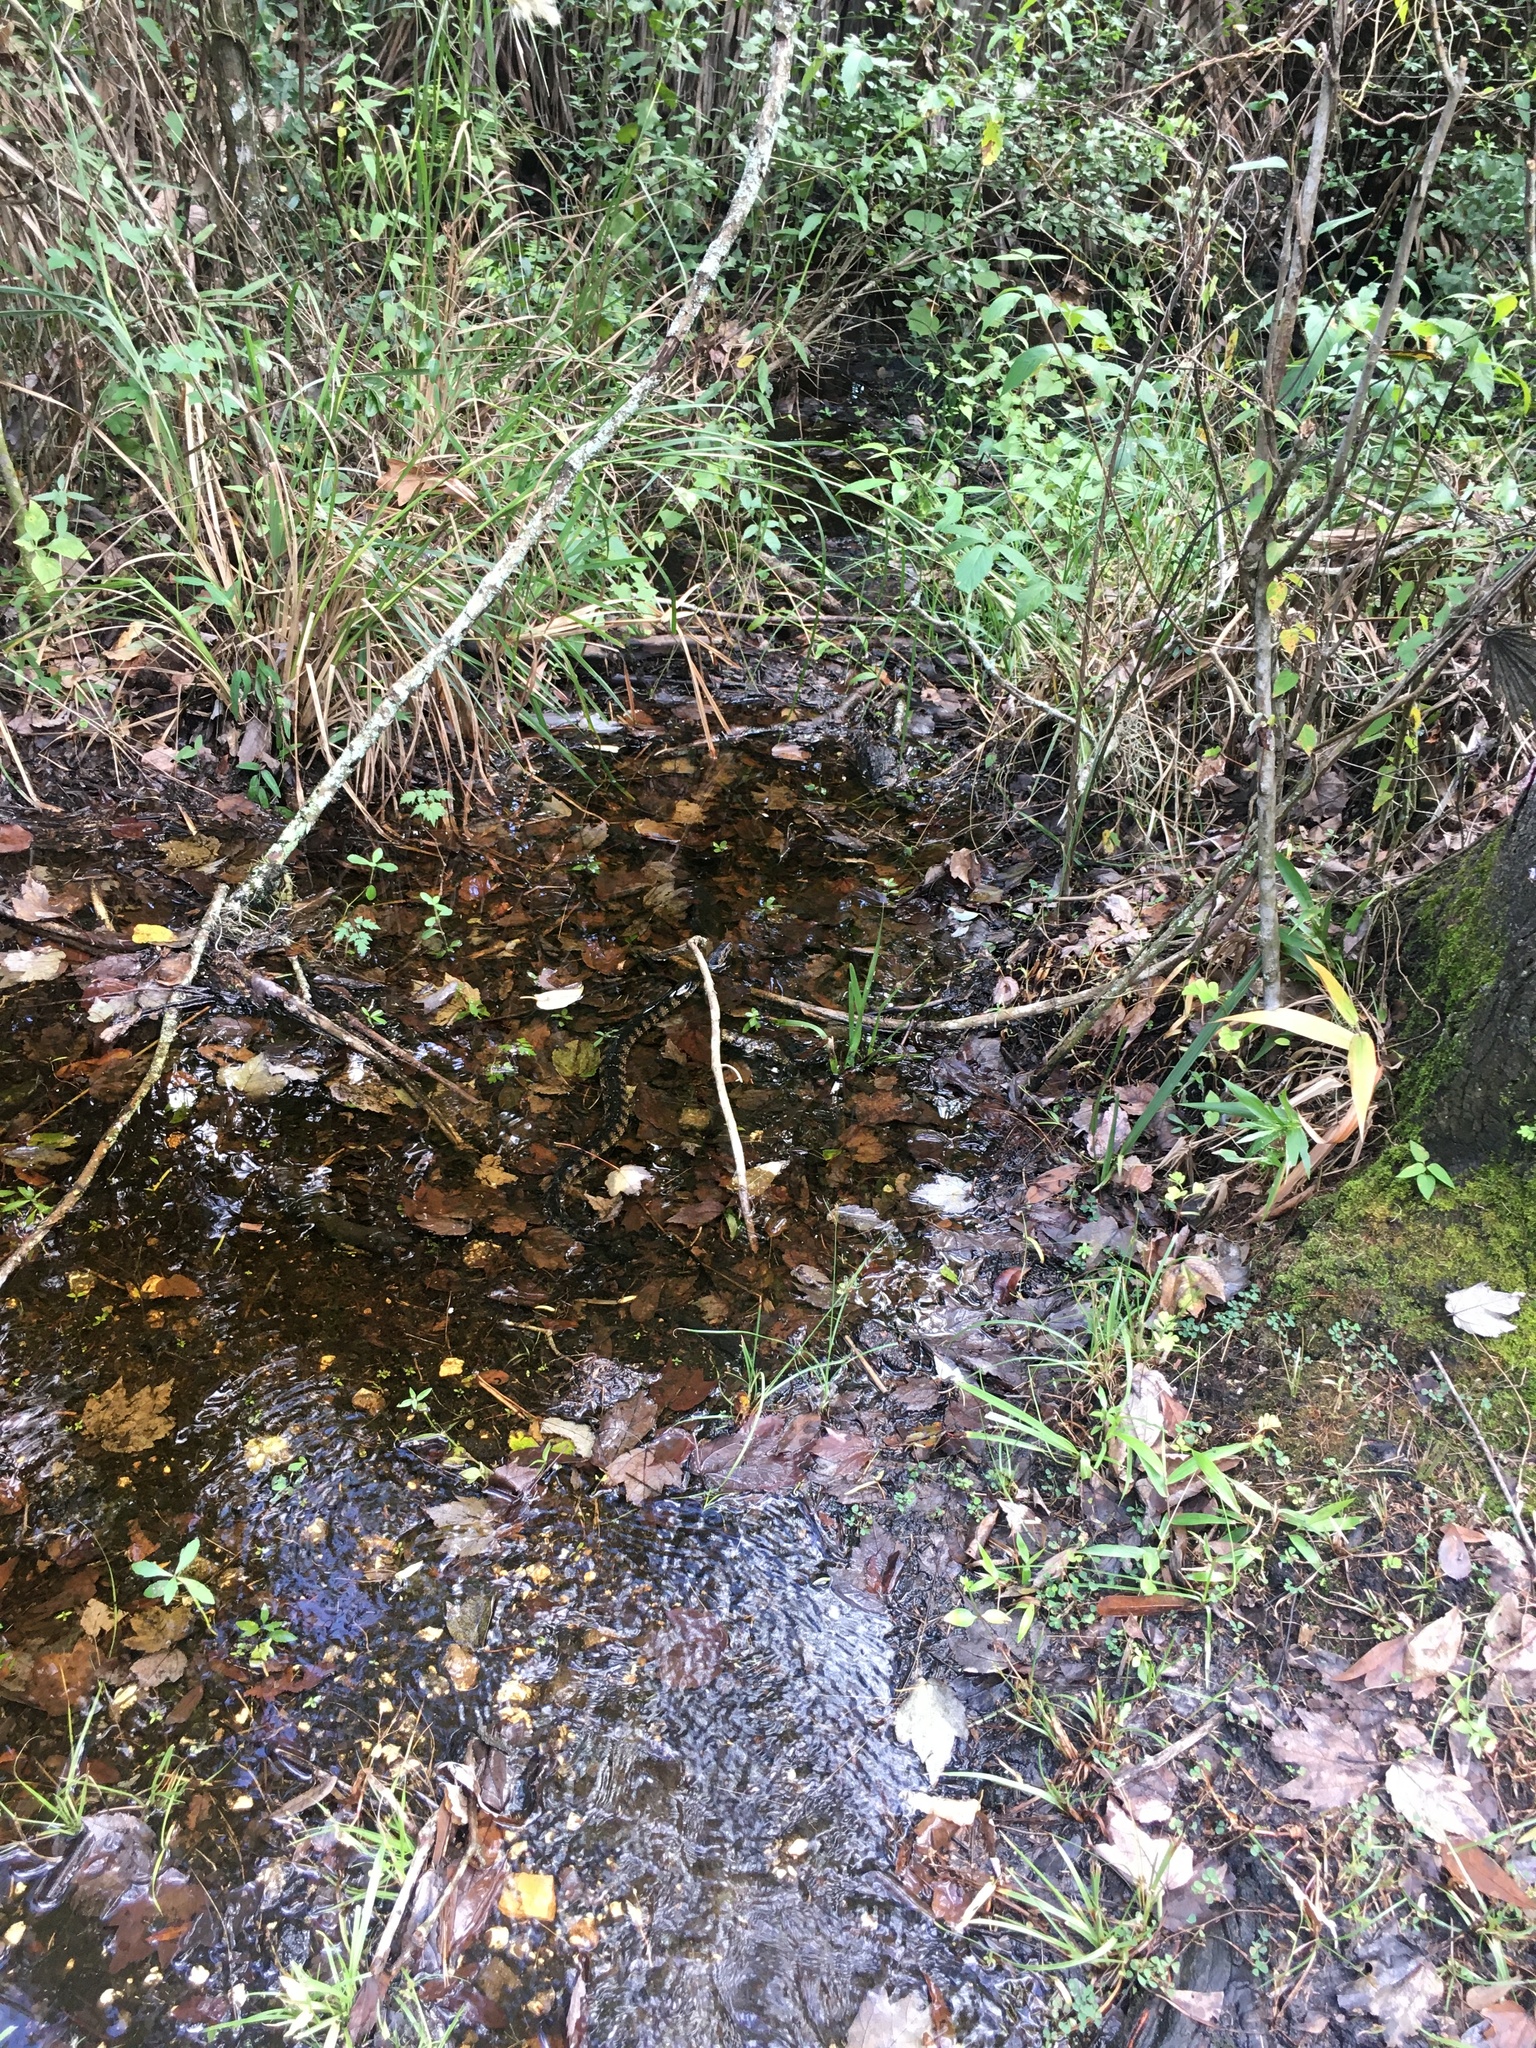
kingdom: Animalia
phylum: Chordata
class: Squamata
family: Colubridae
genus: Nerodia
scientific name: Nerodia fasciata
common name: Southern water snake
